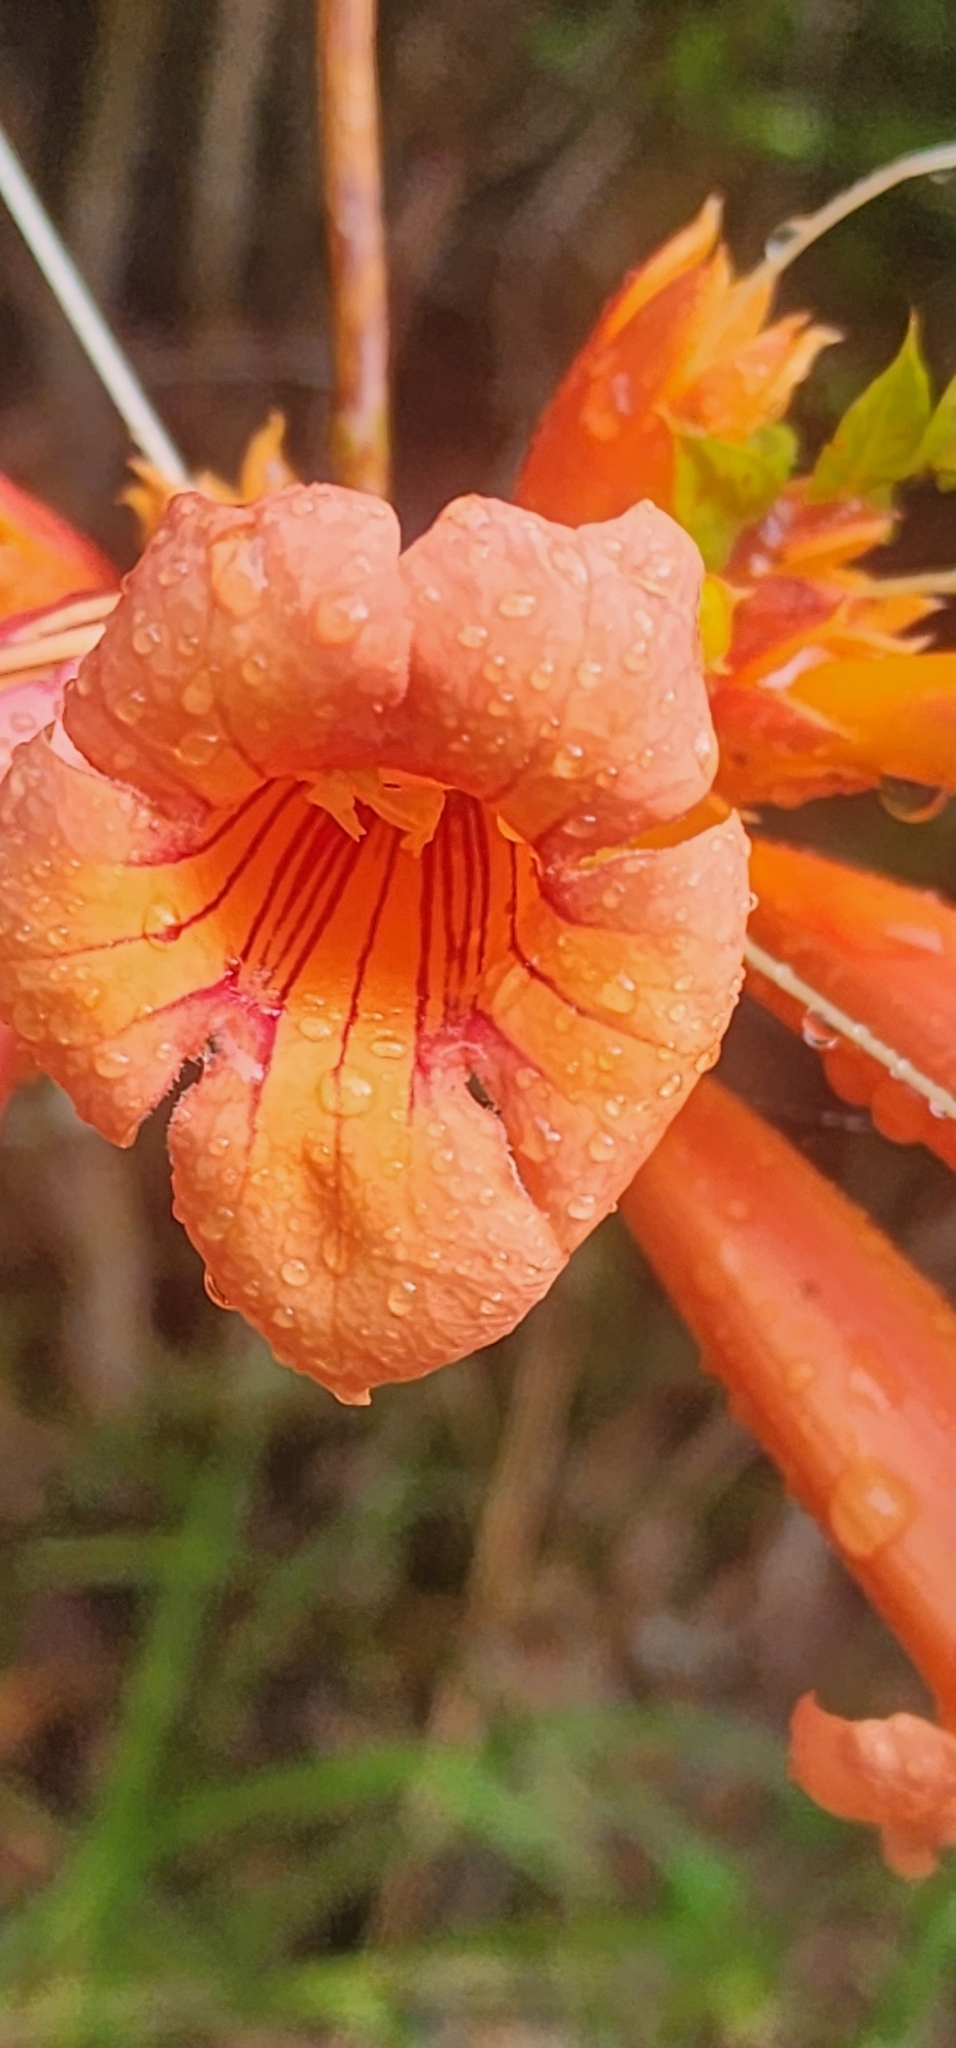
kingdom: Plantae
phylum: Tracheophyta
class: Magnoliopsida
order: Lamiales
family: Bignoniaceae
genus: Campsis
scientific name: Campsis radicans
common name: Trumpet-creeper
